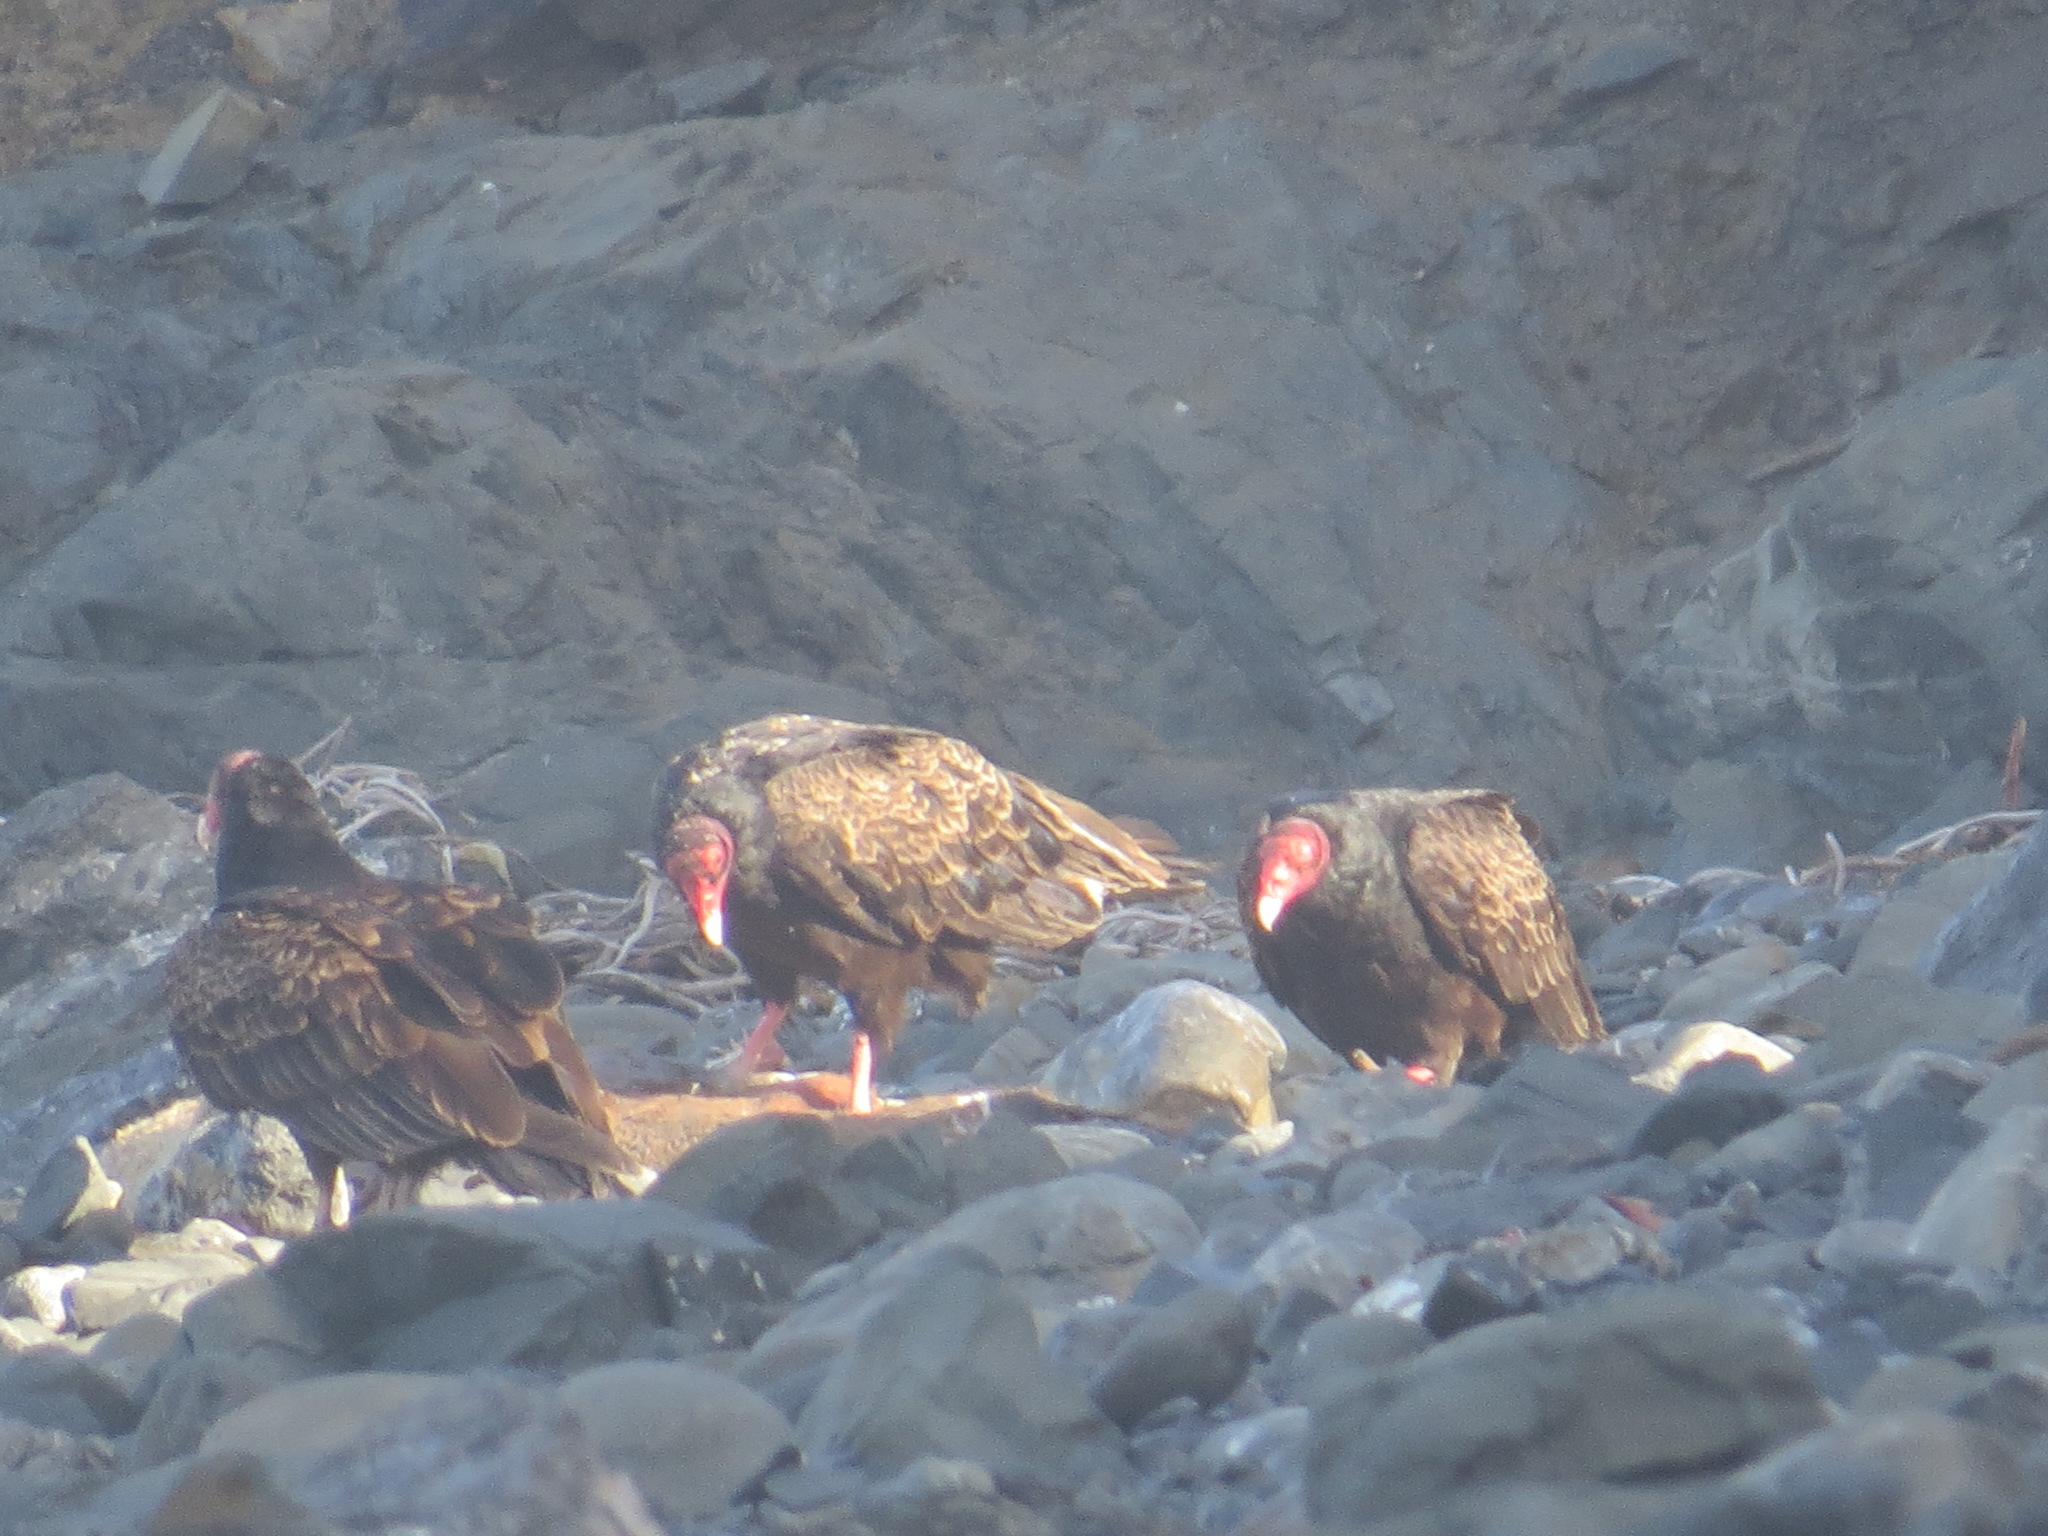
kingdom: Animalia
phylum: Chordata
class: Aves
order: Accipitriformes
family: Cathartidae
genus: Cathartes
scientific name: Cathartes aura
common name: Turkey vulture
